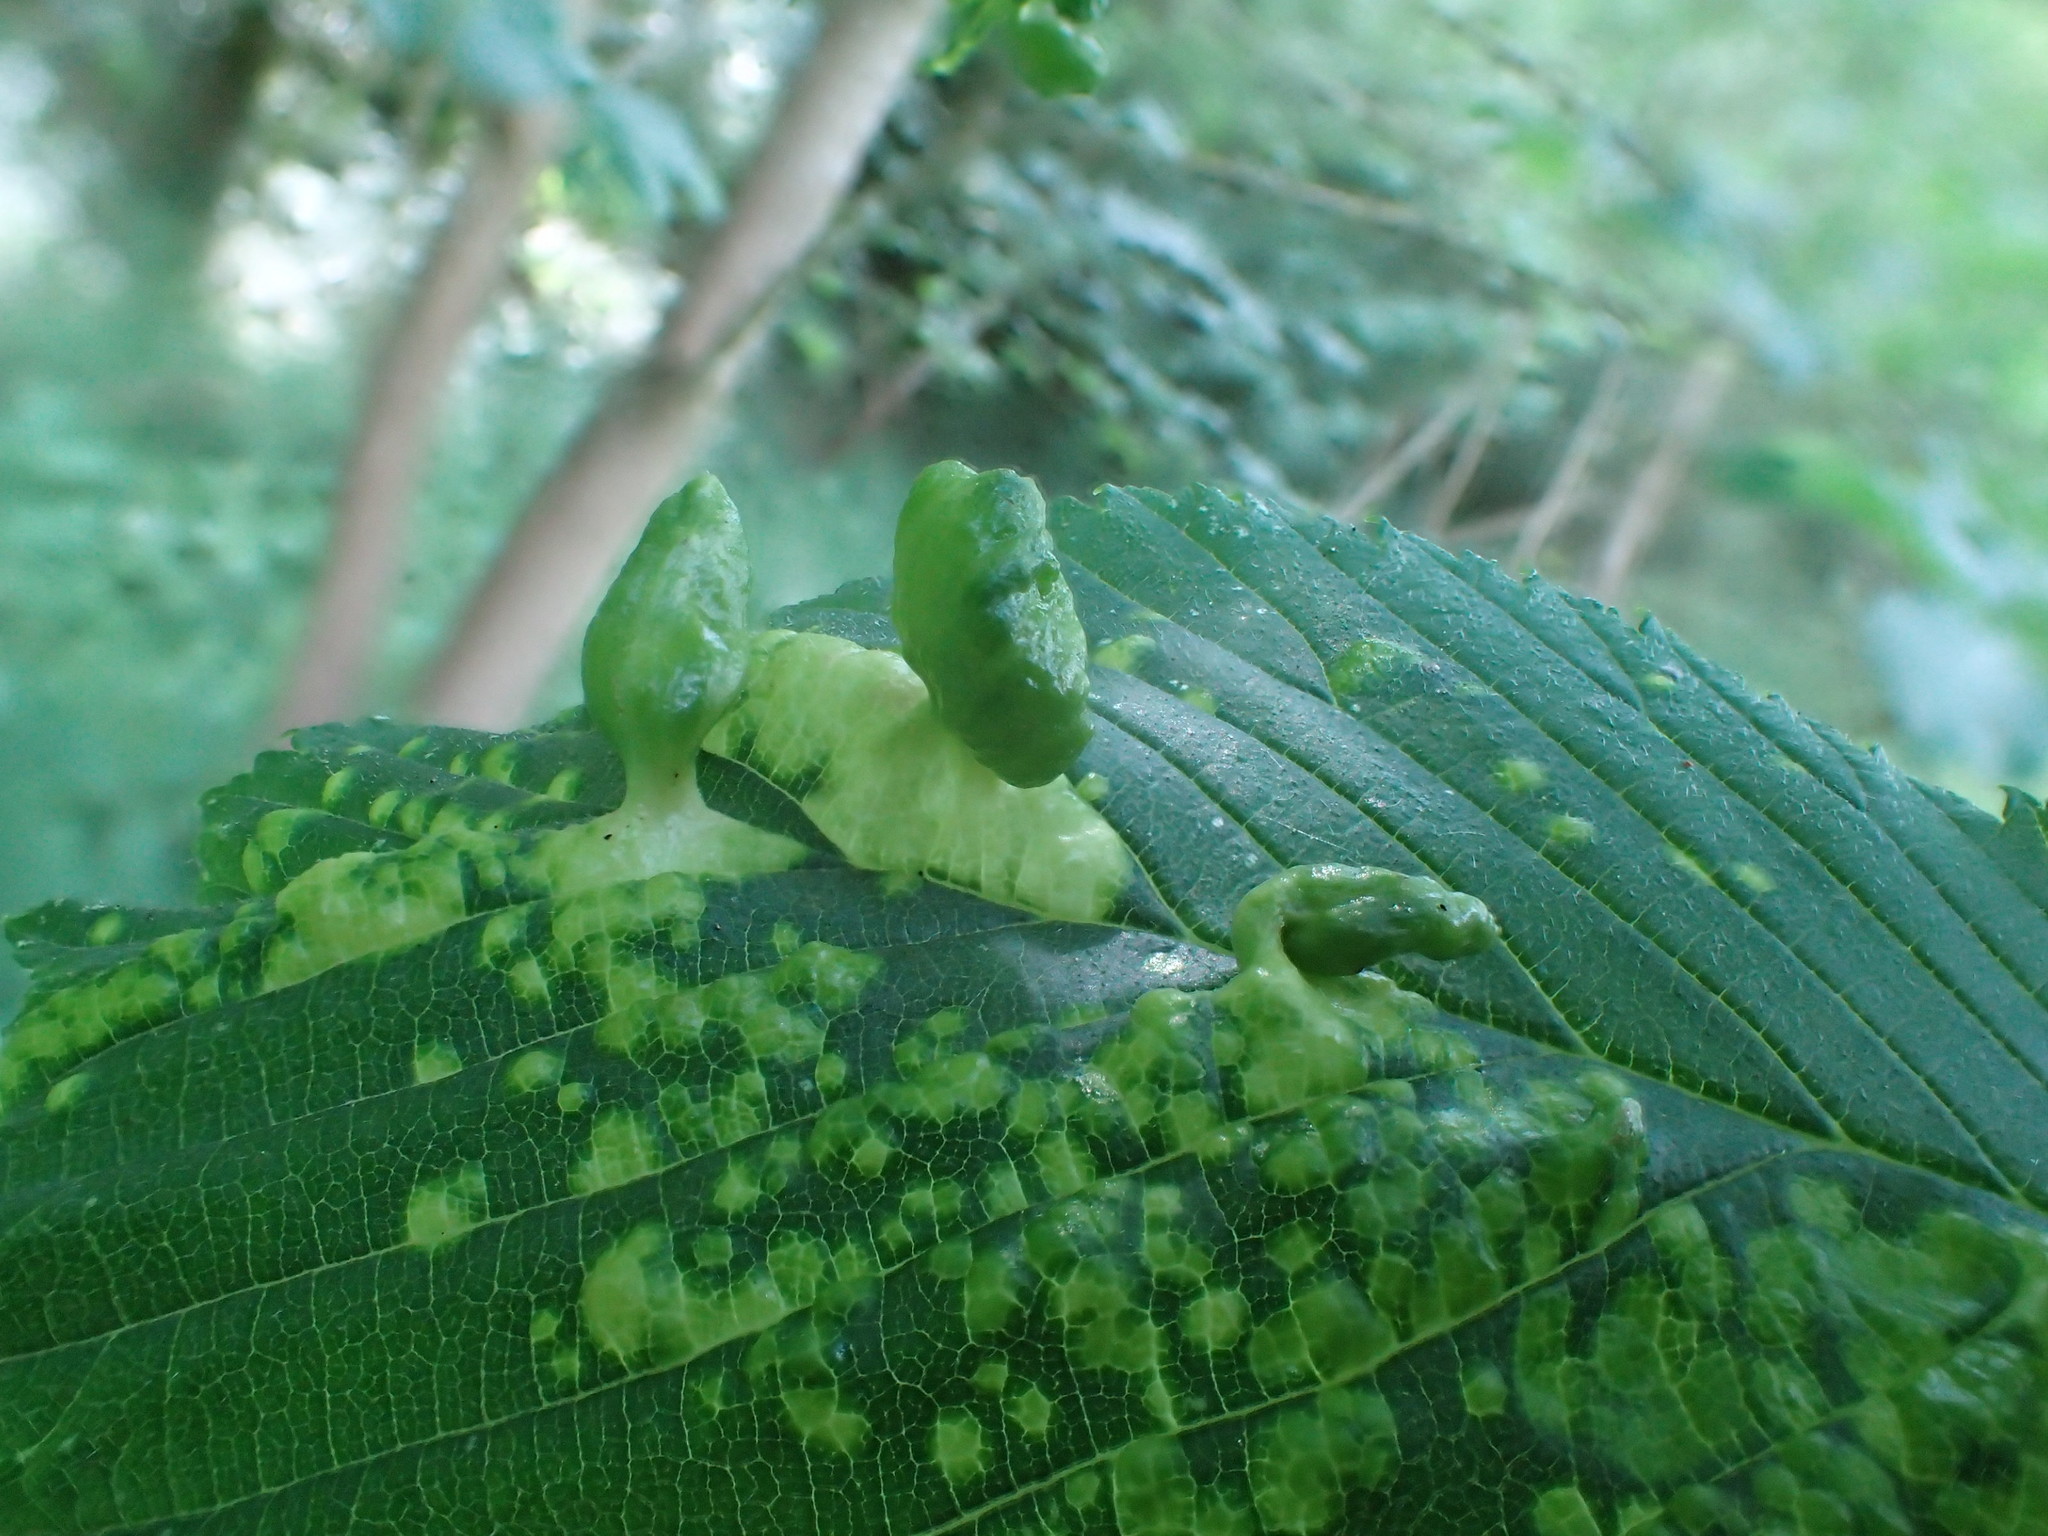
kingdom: Animalia
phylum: Arthropoda
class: Insecta
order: Hemiptera
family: Aphididae
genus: Tetraneura
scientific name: Tetraneura ulmi
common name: Aphid
